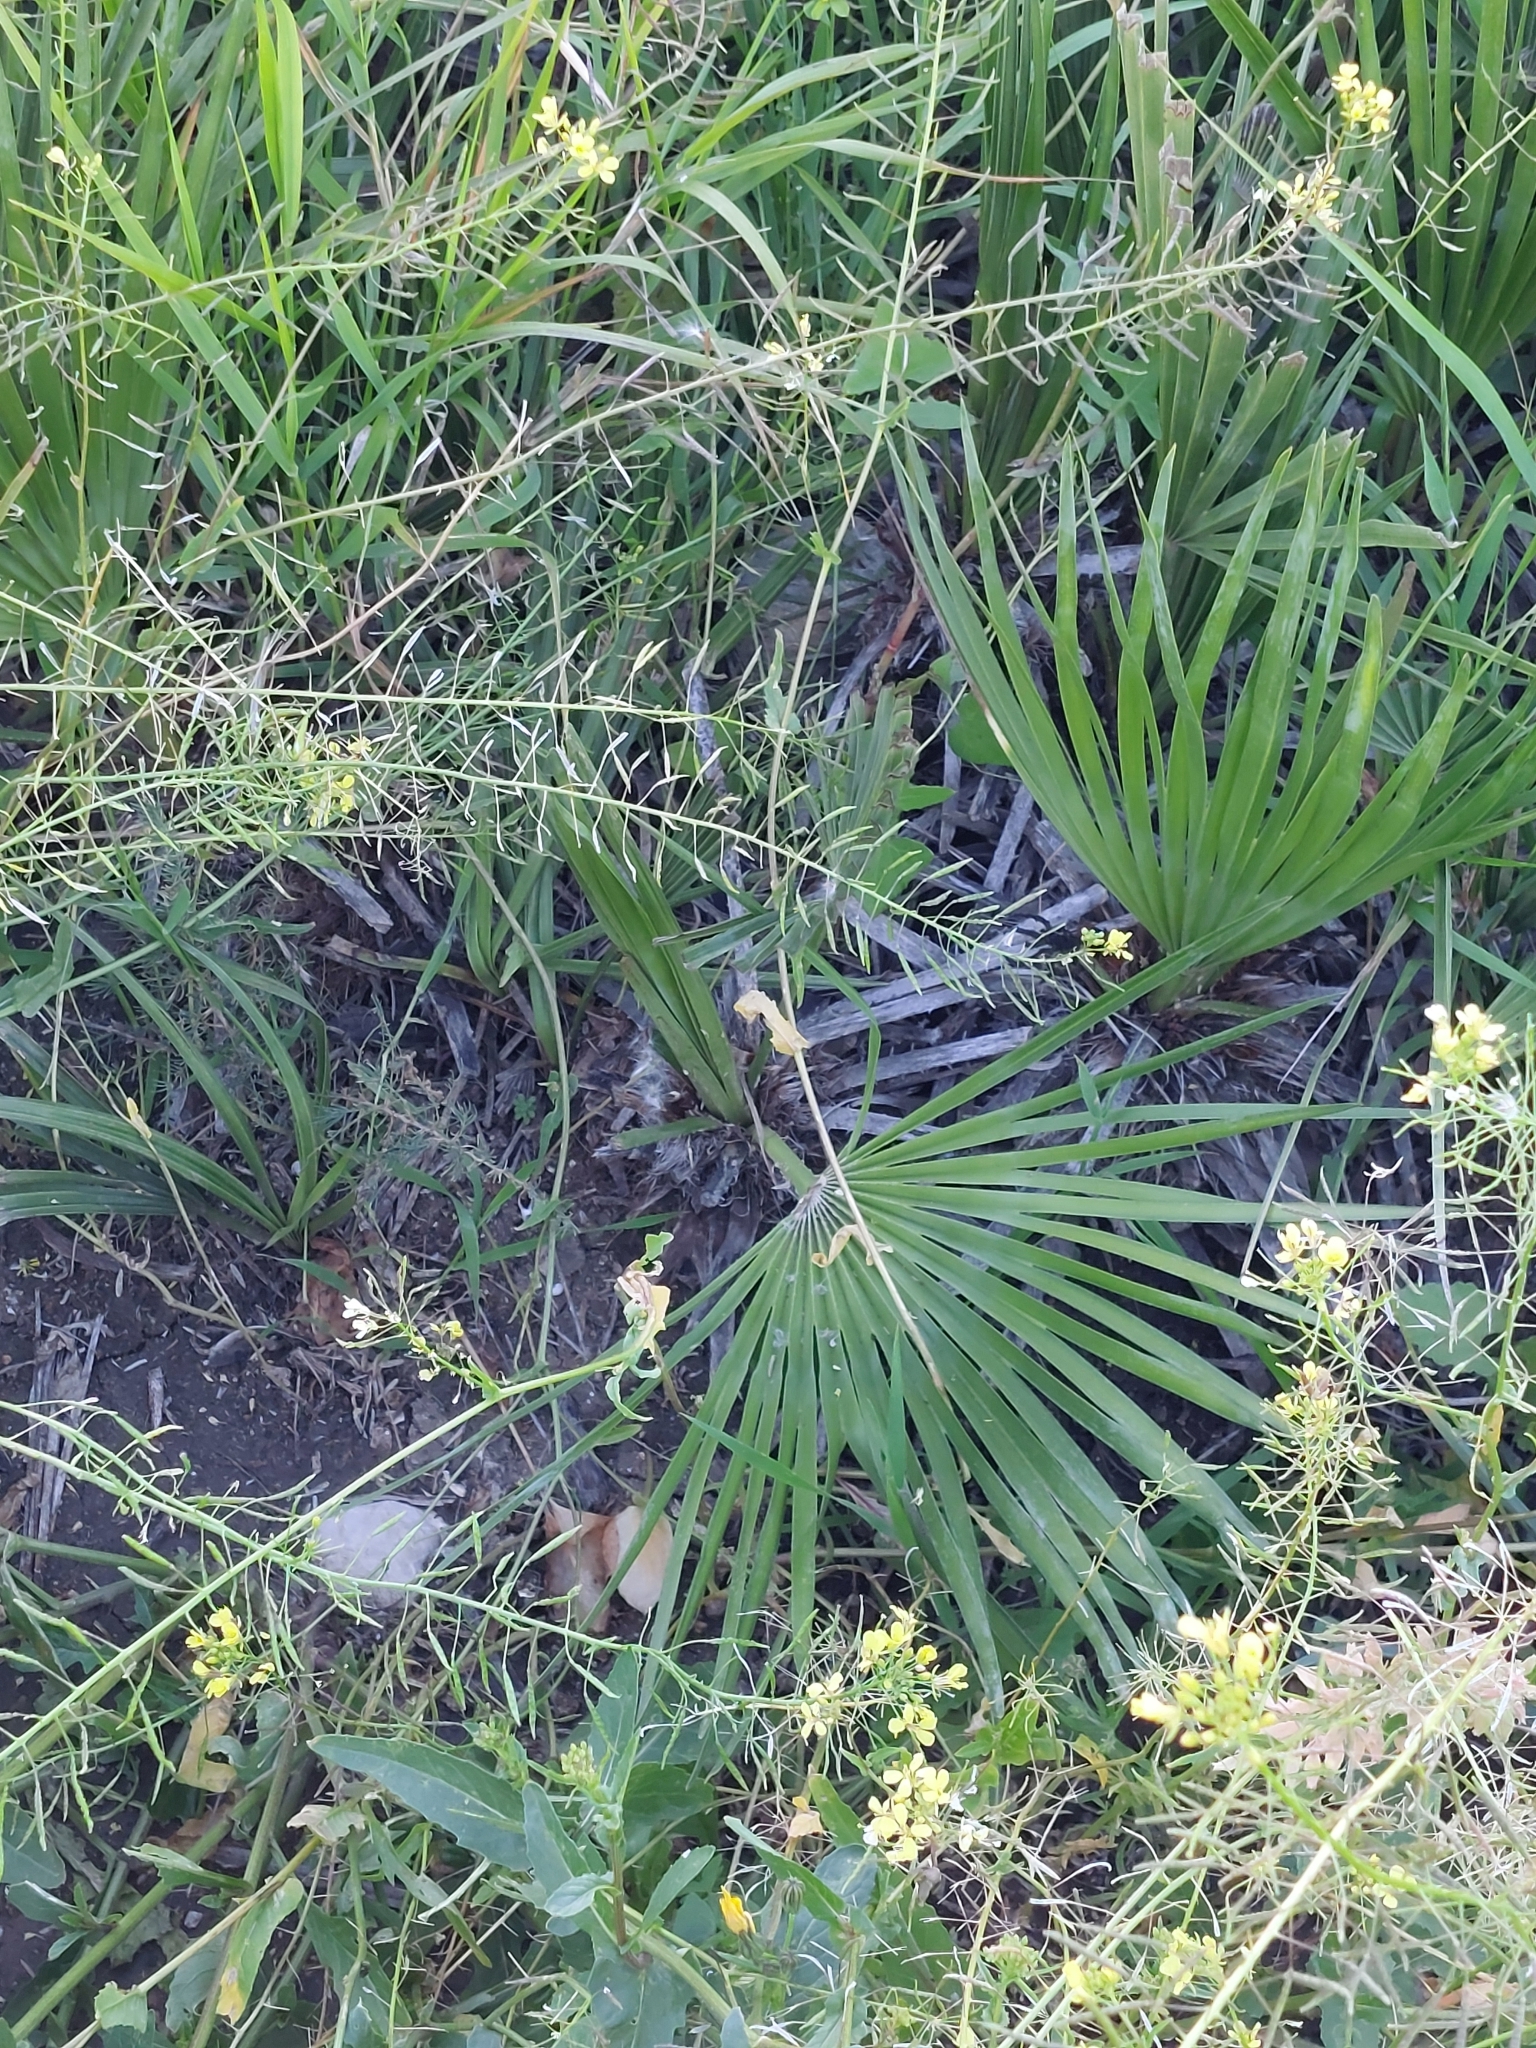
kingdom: Plantae
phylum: Tracheophyta
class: Liliopsida
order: Arecales
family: Arecaceae
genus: Chamaerops
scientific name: Chamaerops humilis
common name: Dwarf fan palm
